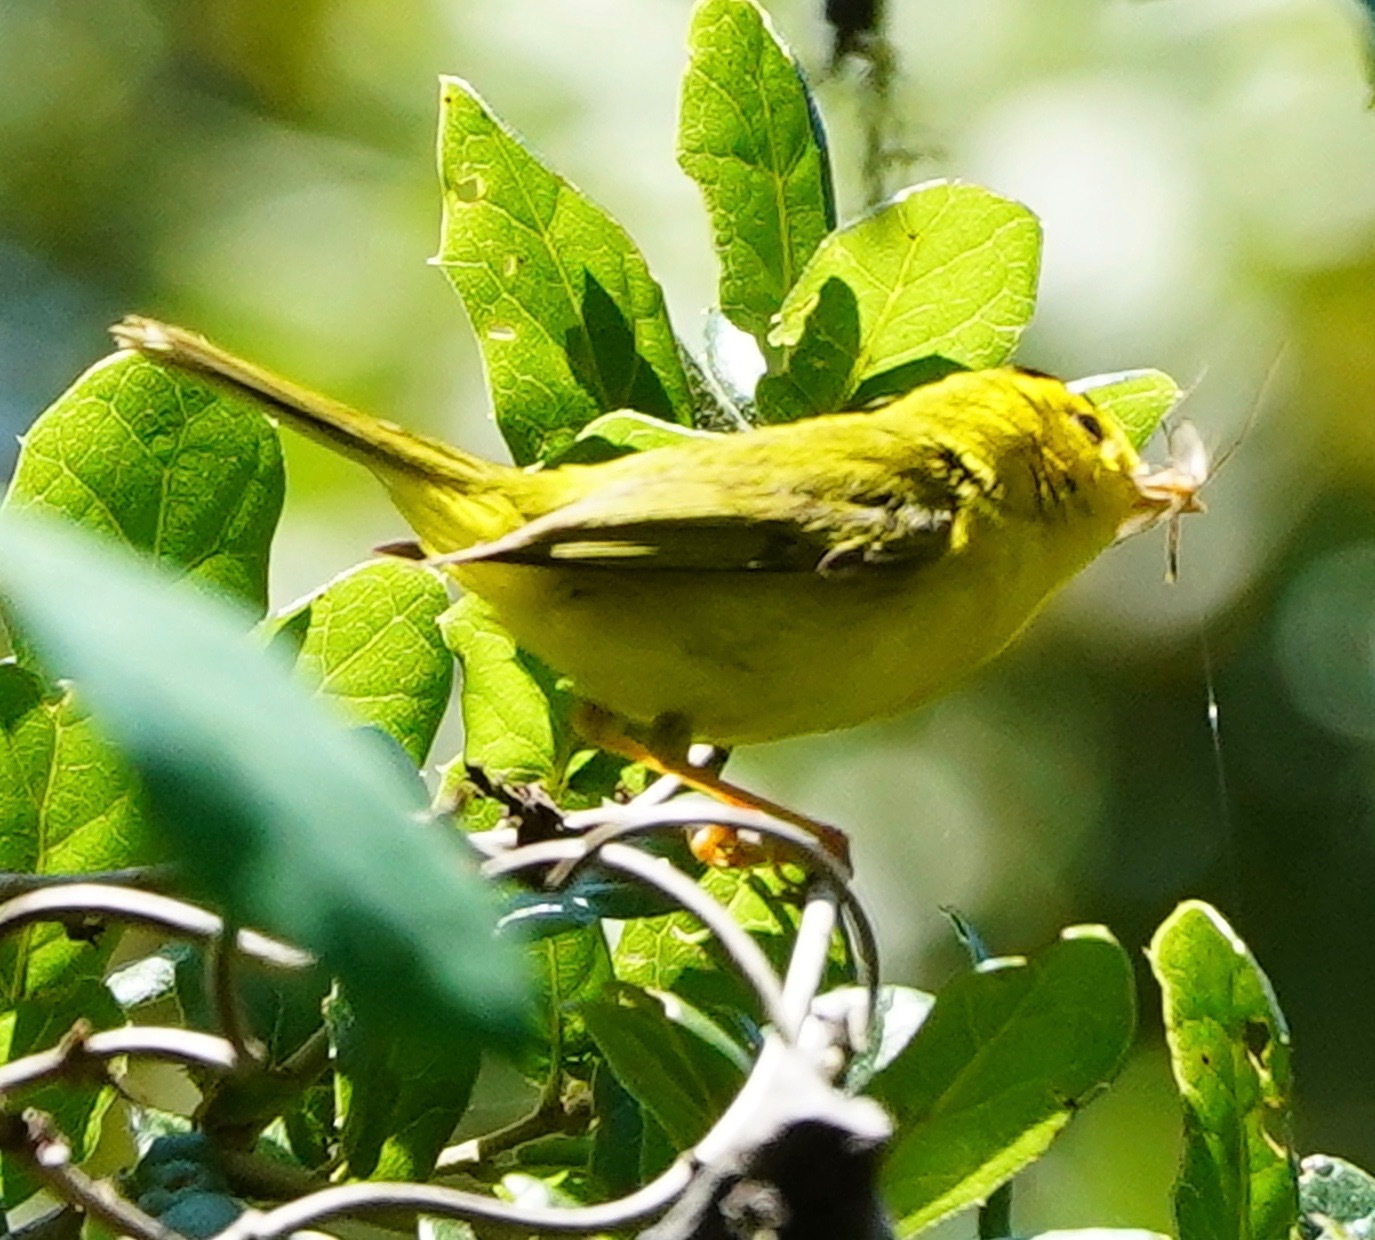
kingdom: Animalia
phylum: Chordata
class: Aves
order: Passeriformes
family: Parulidae
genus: Cardellina
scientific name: Cardellina pusilla
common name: Wilson's warbler
